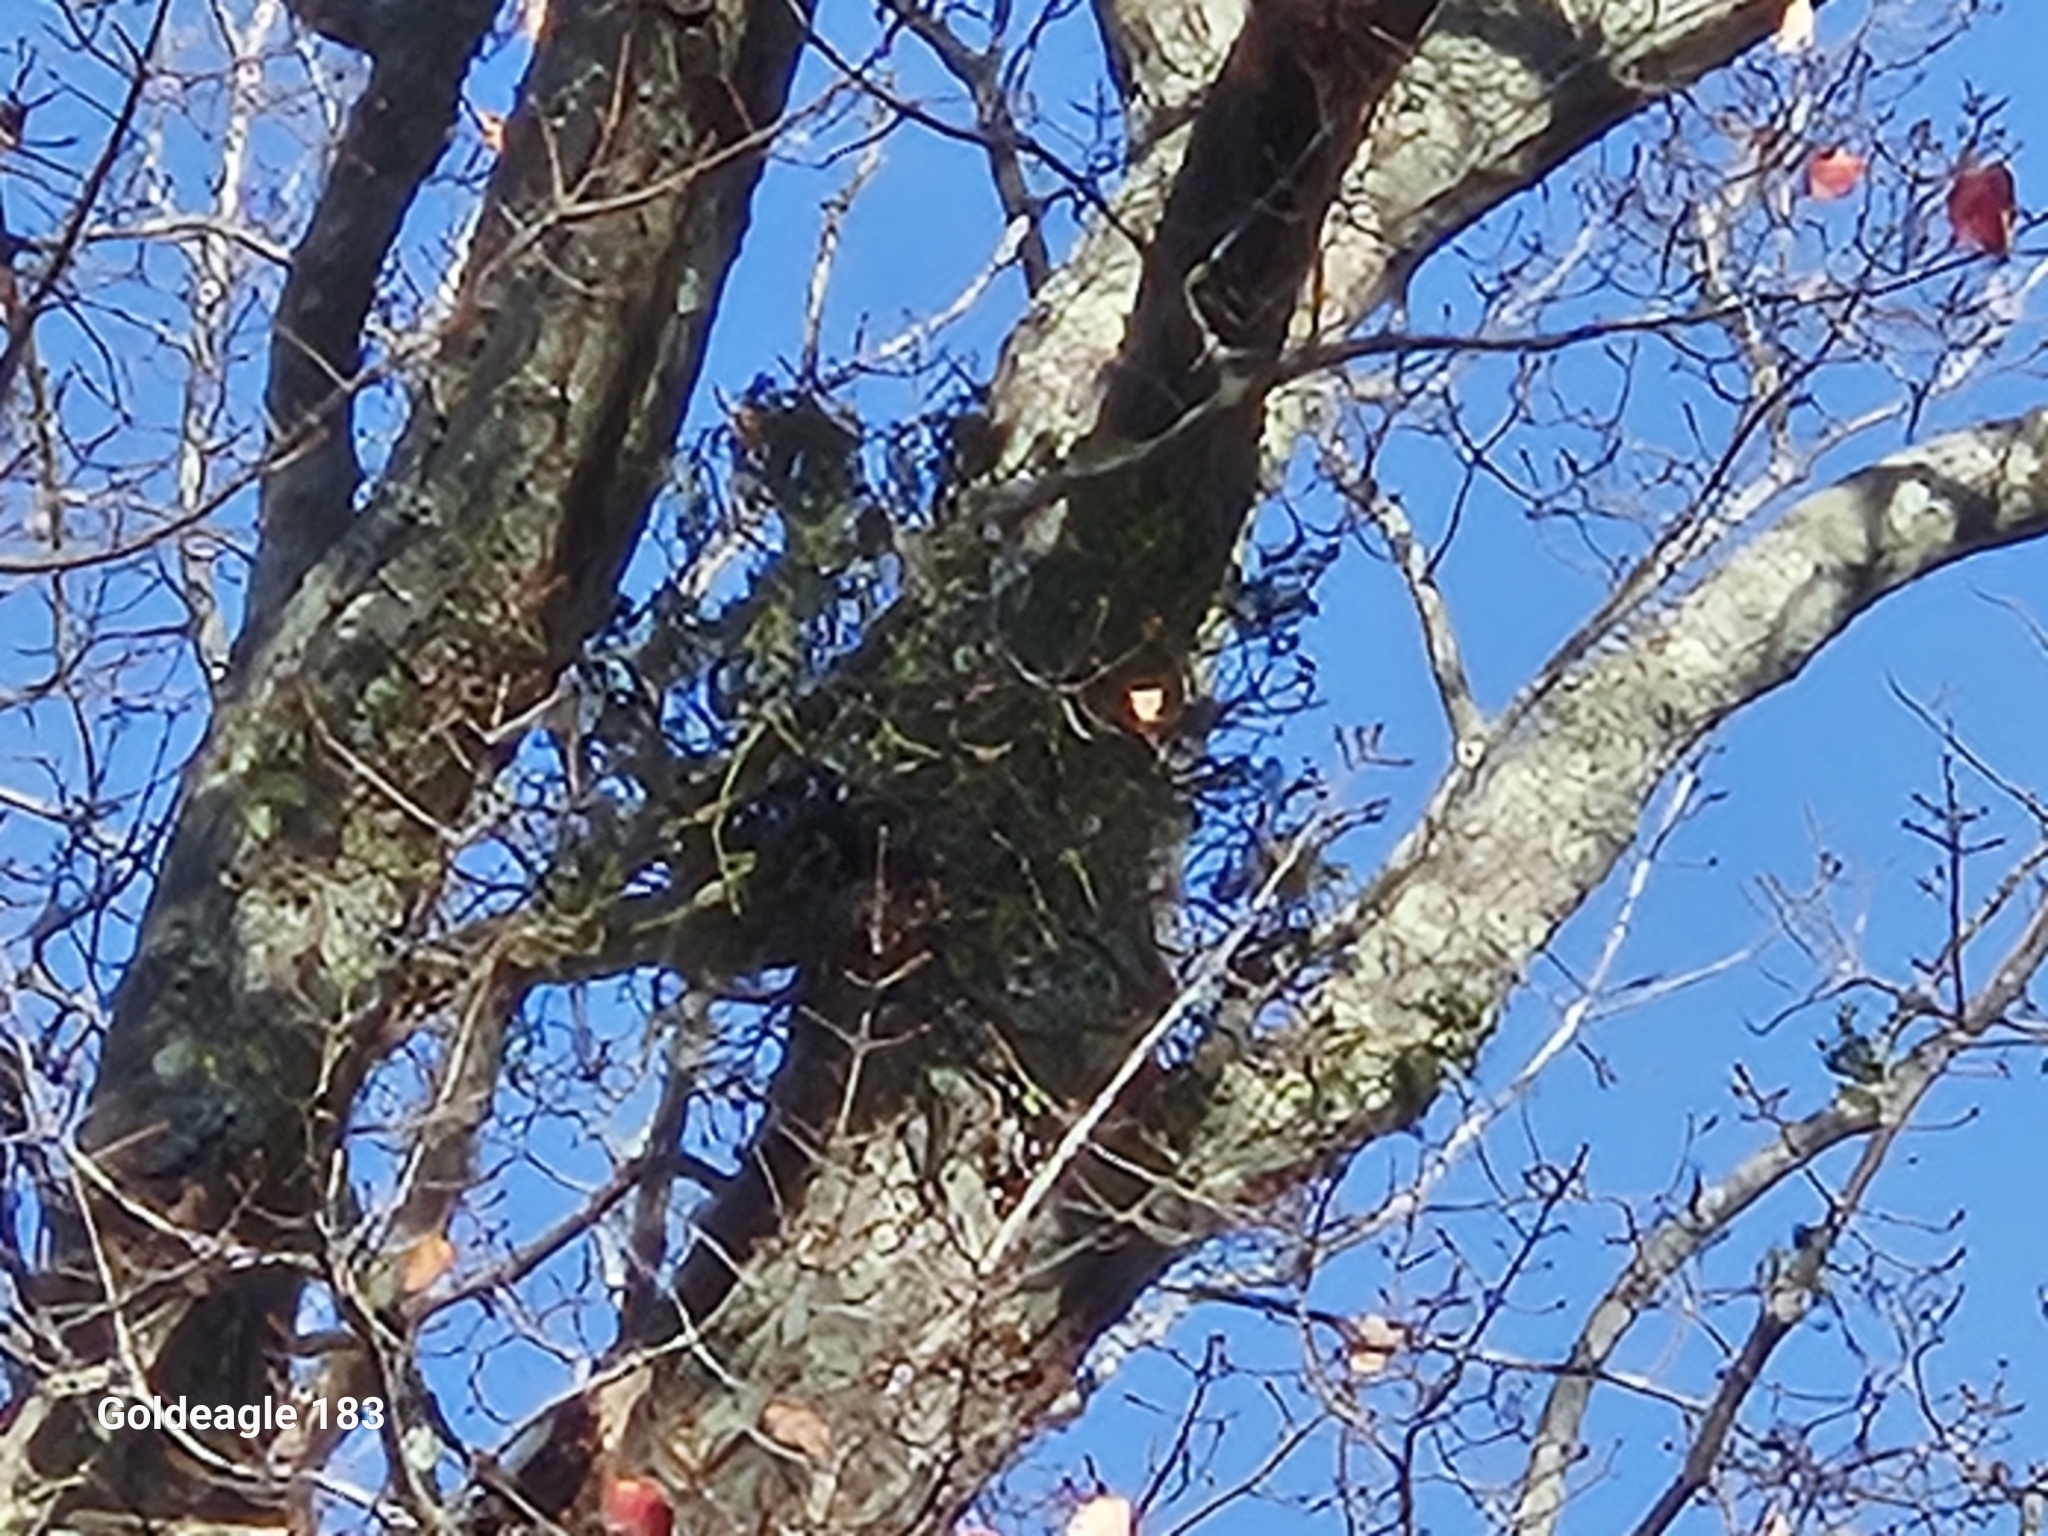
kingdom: Plantae
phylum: Tracheophyta
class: Magnoliopsida
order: Santalales
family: Viscaceae
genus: Phoradendron
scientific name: Phoradendron leucarpum
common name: Pacific mistletoe
